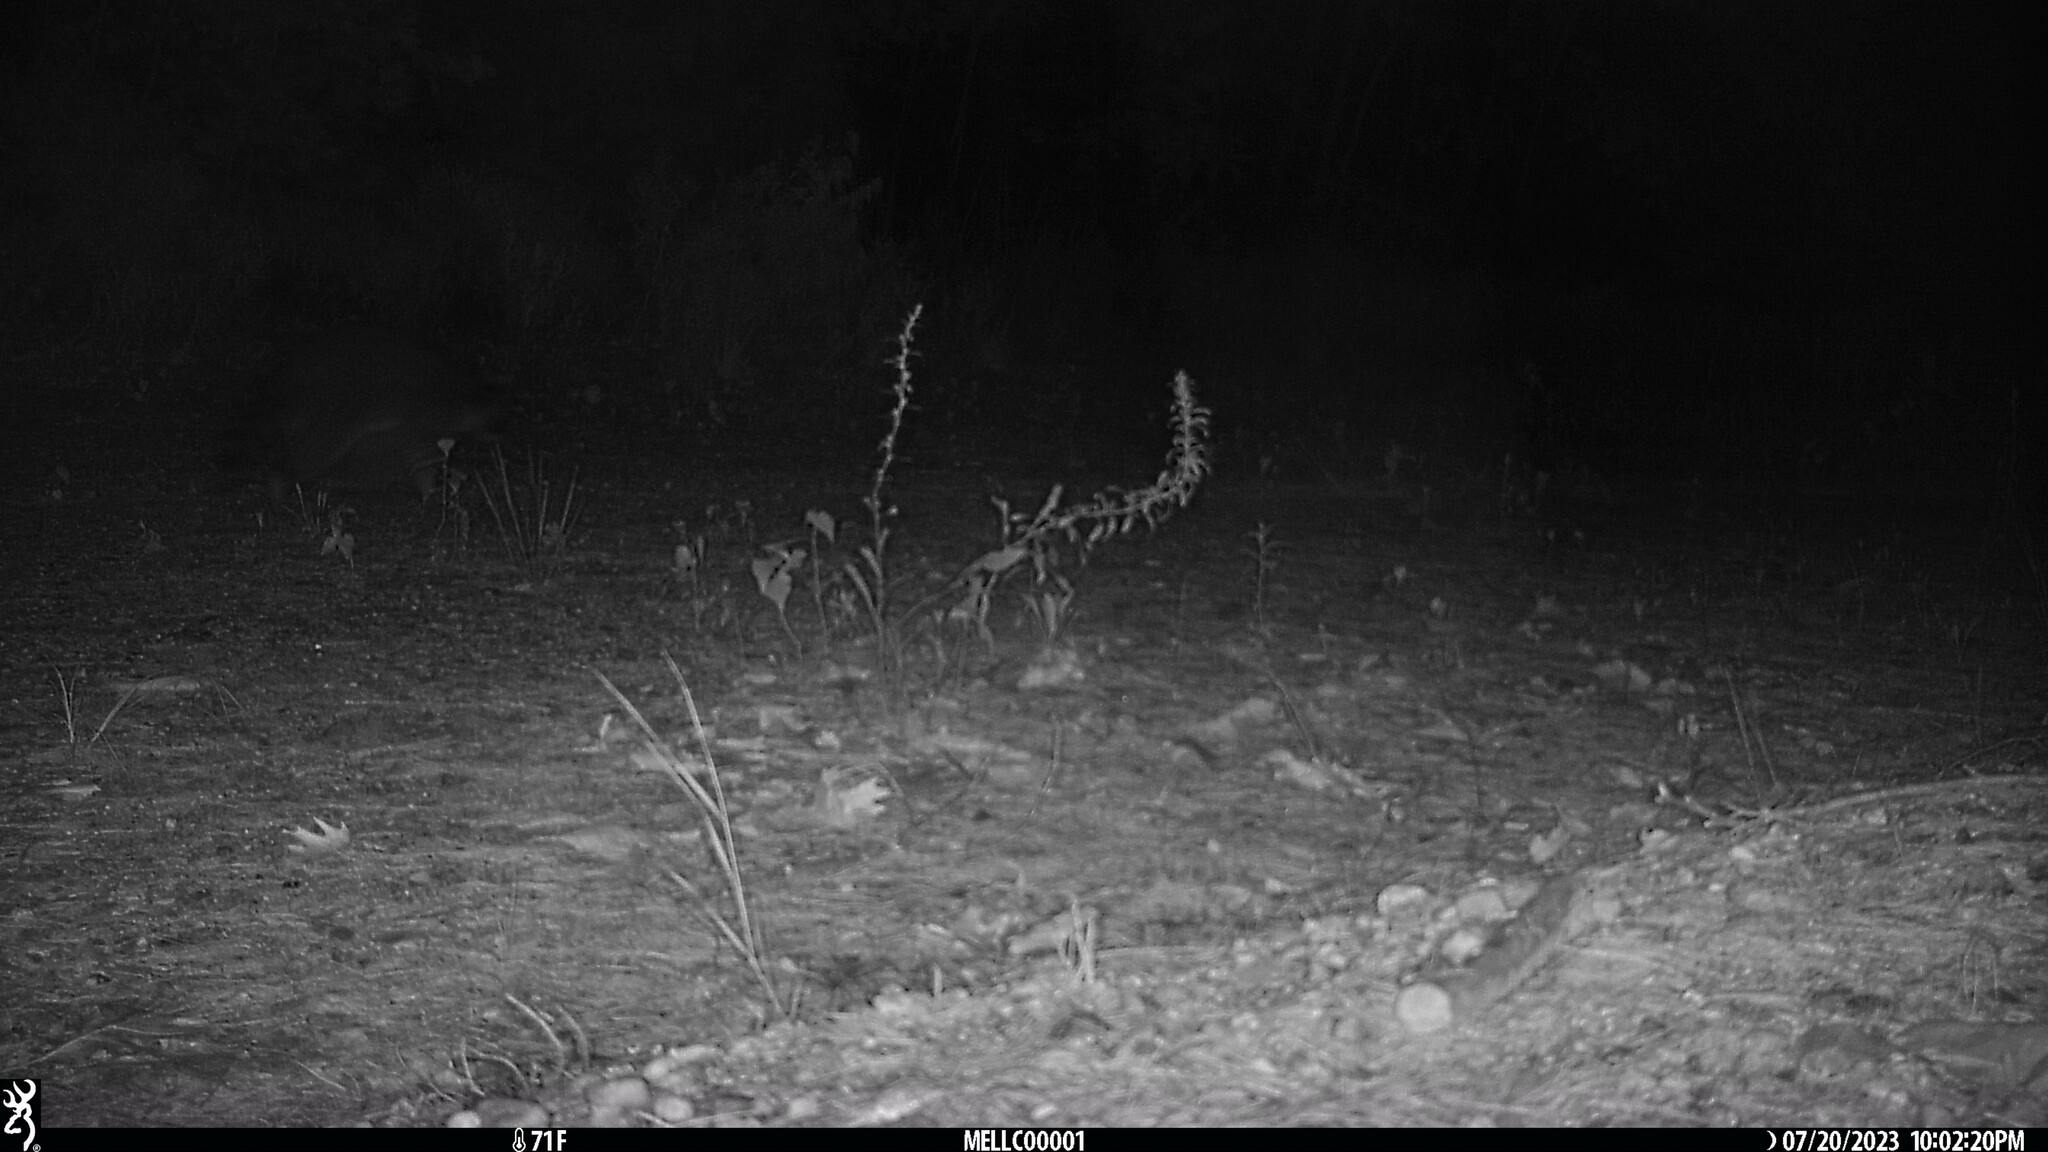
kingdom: Animalia
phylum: Chordata
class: Mammalia
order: Carnivora
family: Procyonidae
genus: Procyon
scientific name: Procyon lotor
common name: Raccoon
